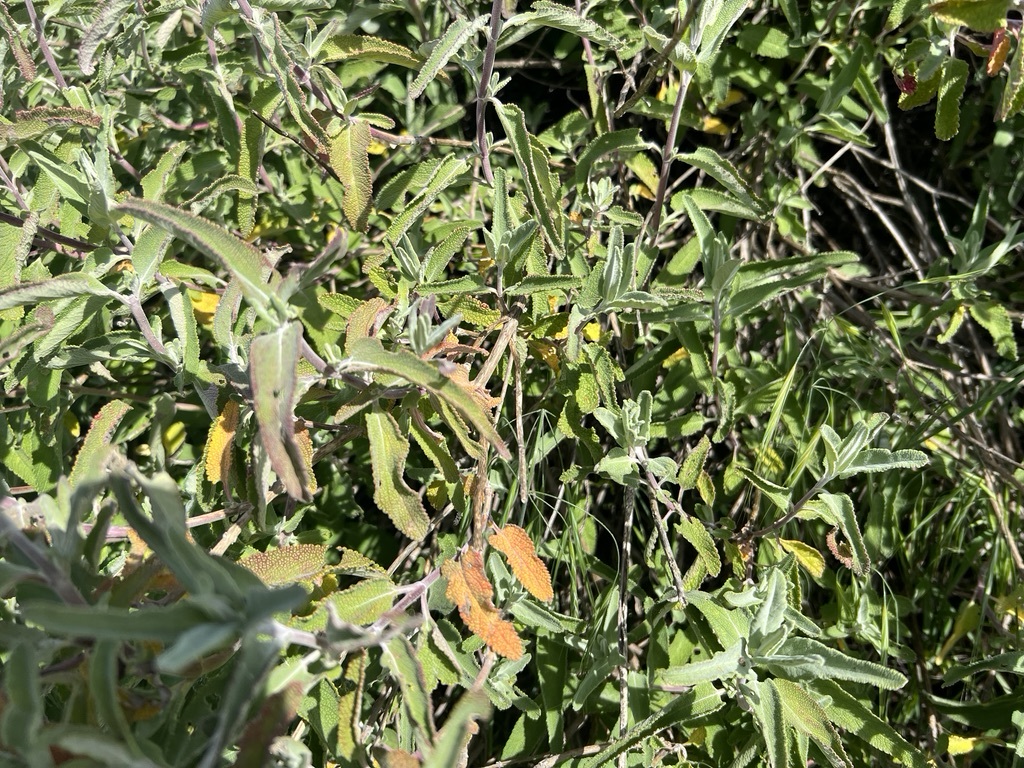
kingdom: Plantae
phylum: Tracheophyta
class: Magnoliopsida
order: Lamiales
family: Lamiaceae
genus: Salvia
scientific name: Salvia leucophylla
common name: Purple sage
